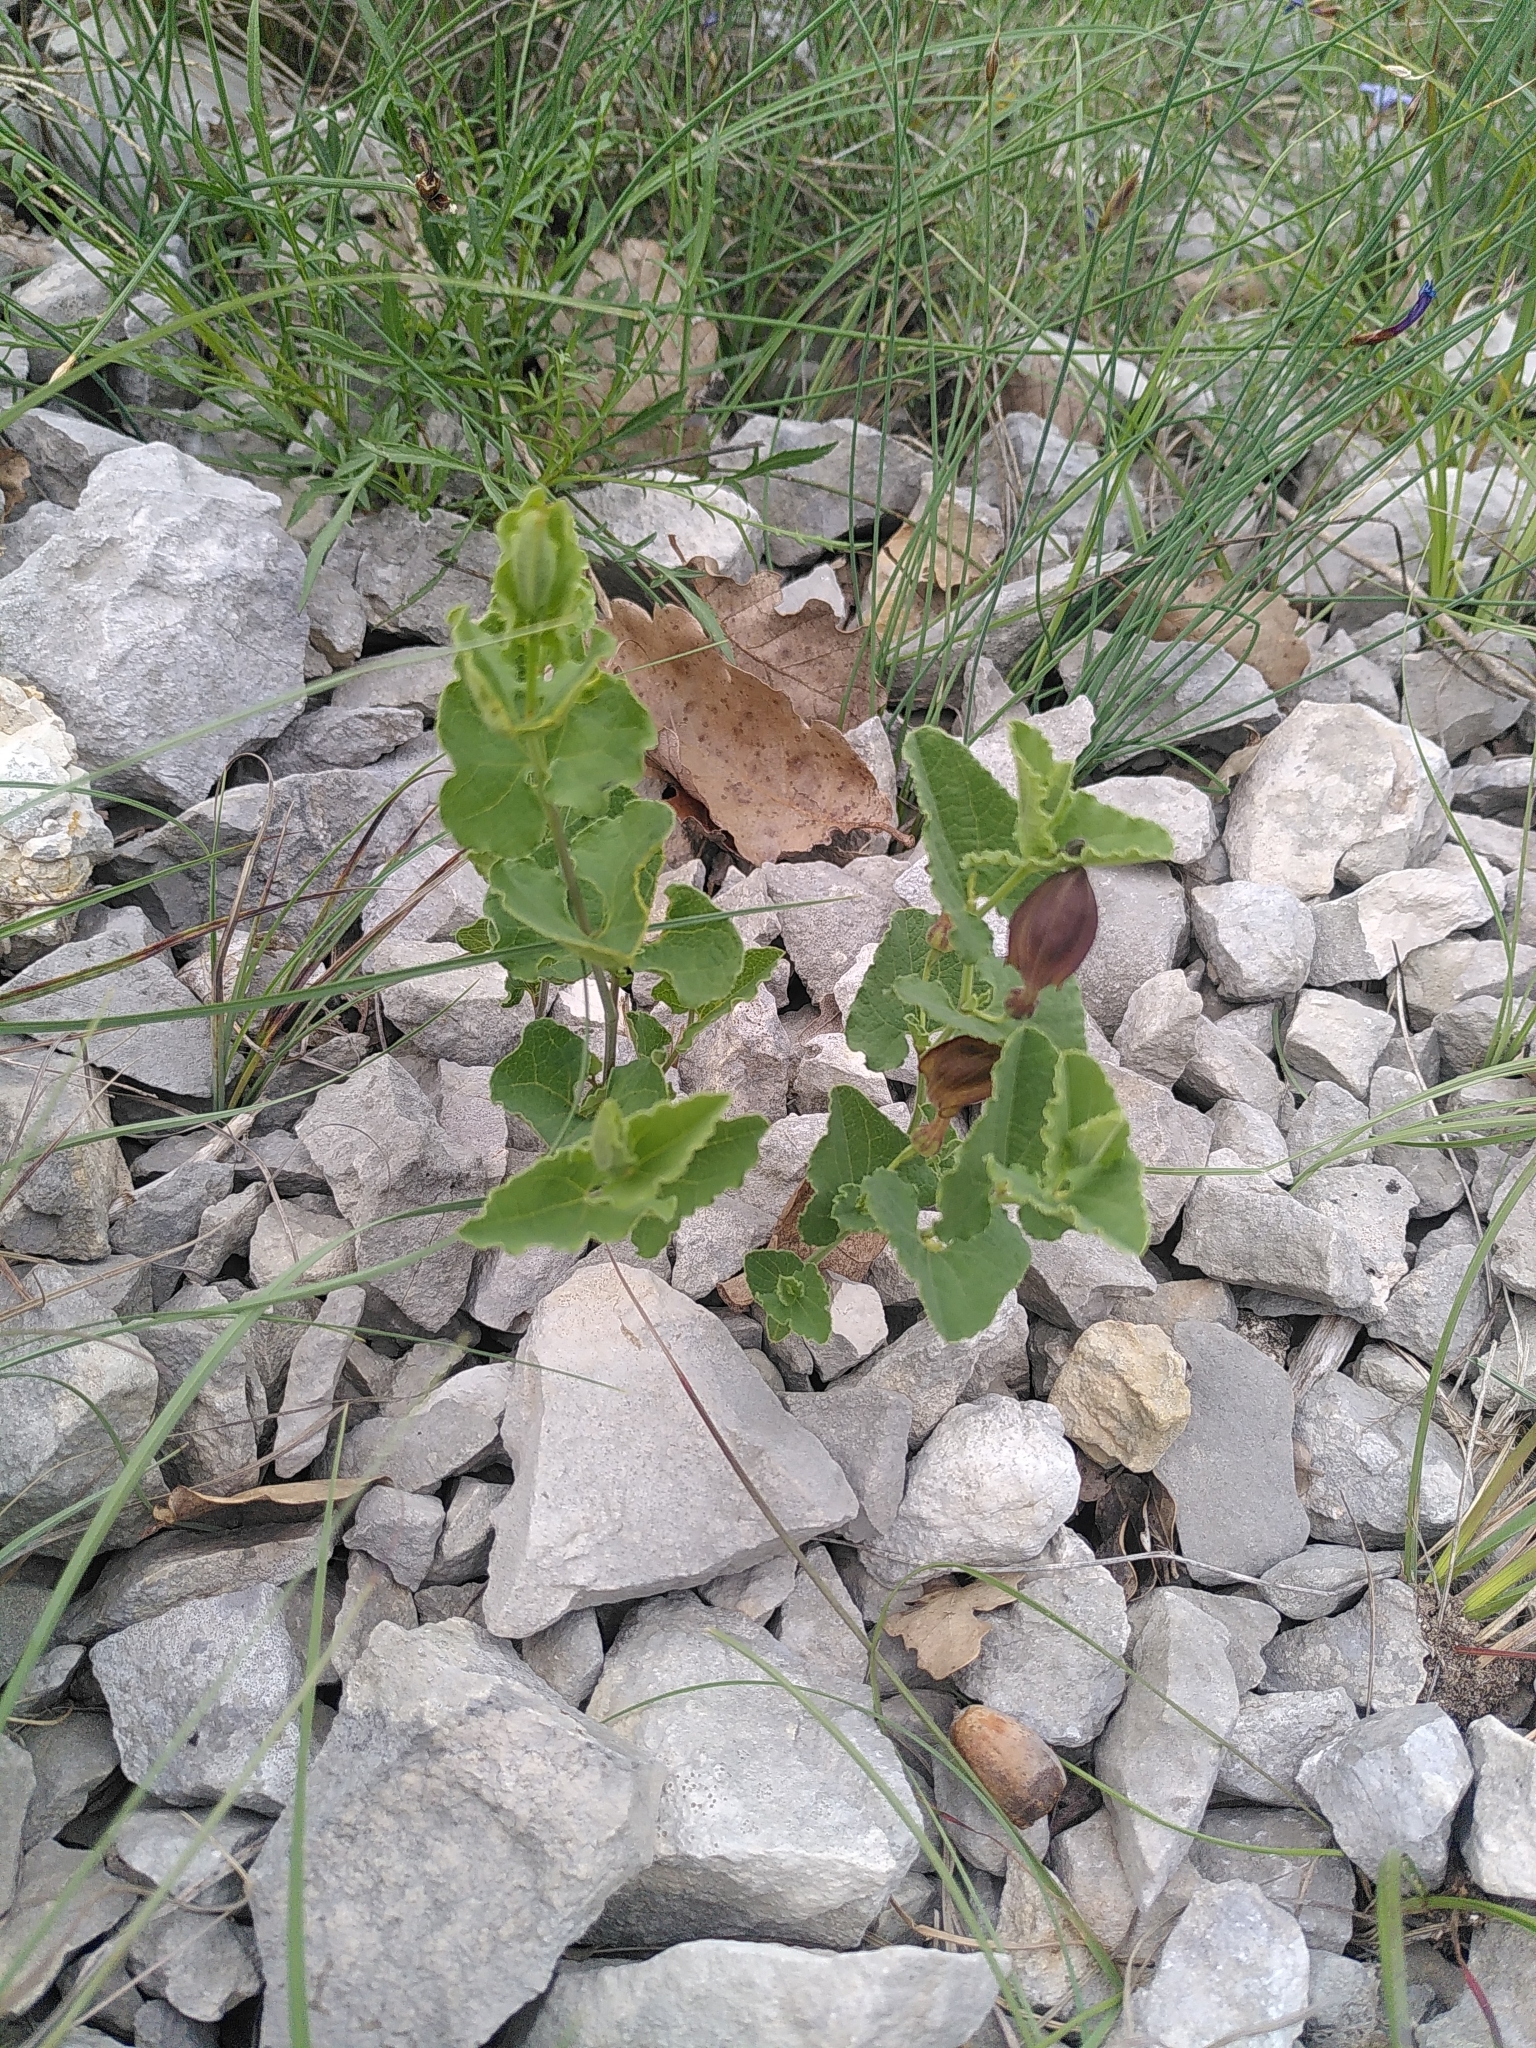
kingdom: Plantae
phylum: Tracheophyta
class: Magnoliopsida
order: Piperales
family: Aristolochiaceae
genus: Aristolochia
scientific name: Aristolochia pistolochia
